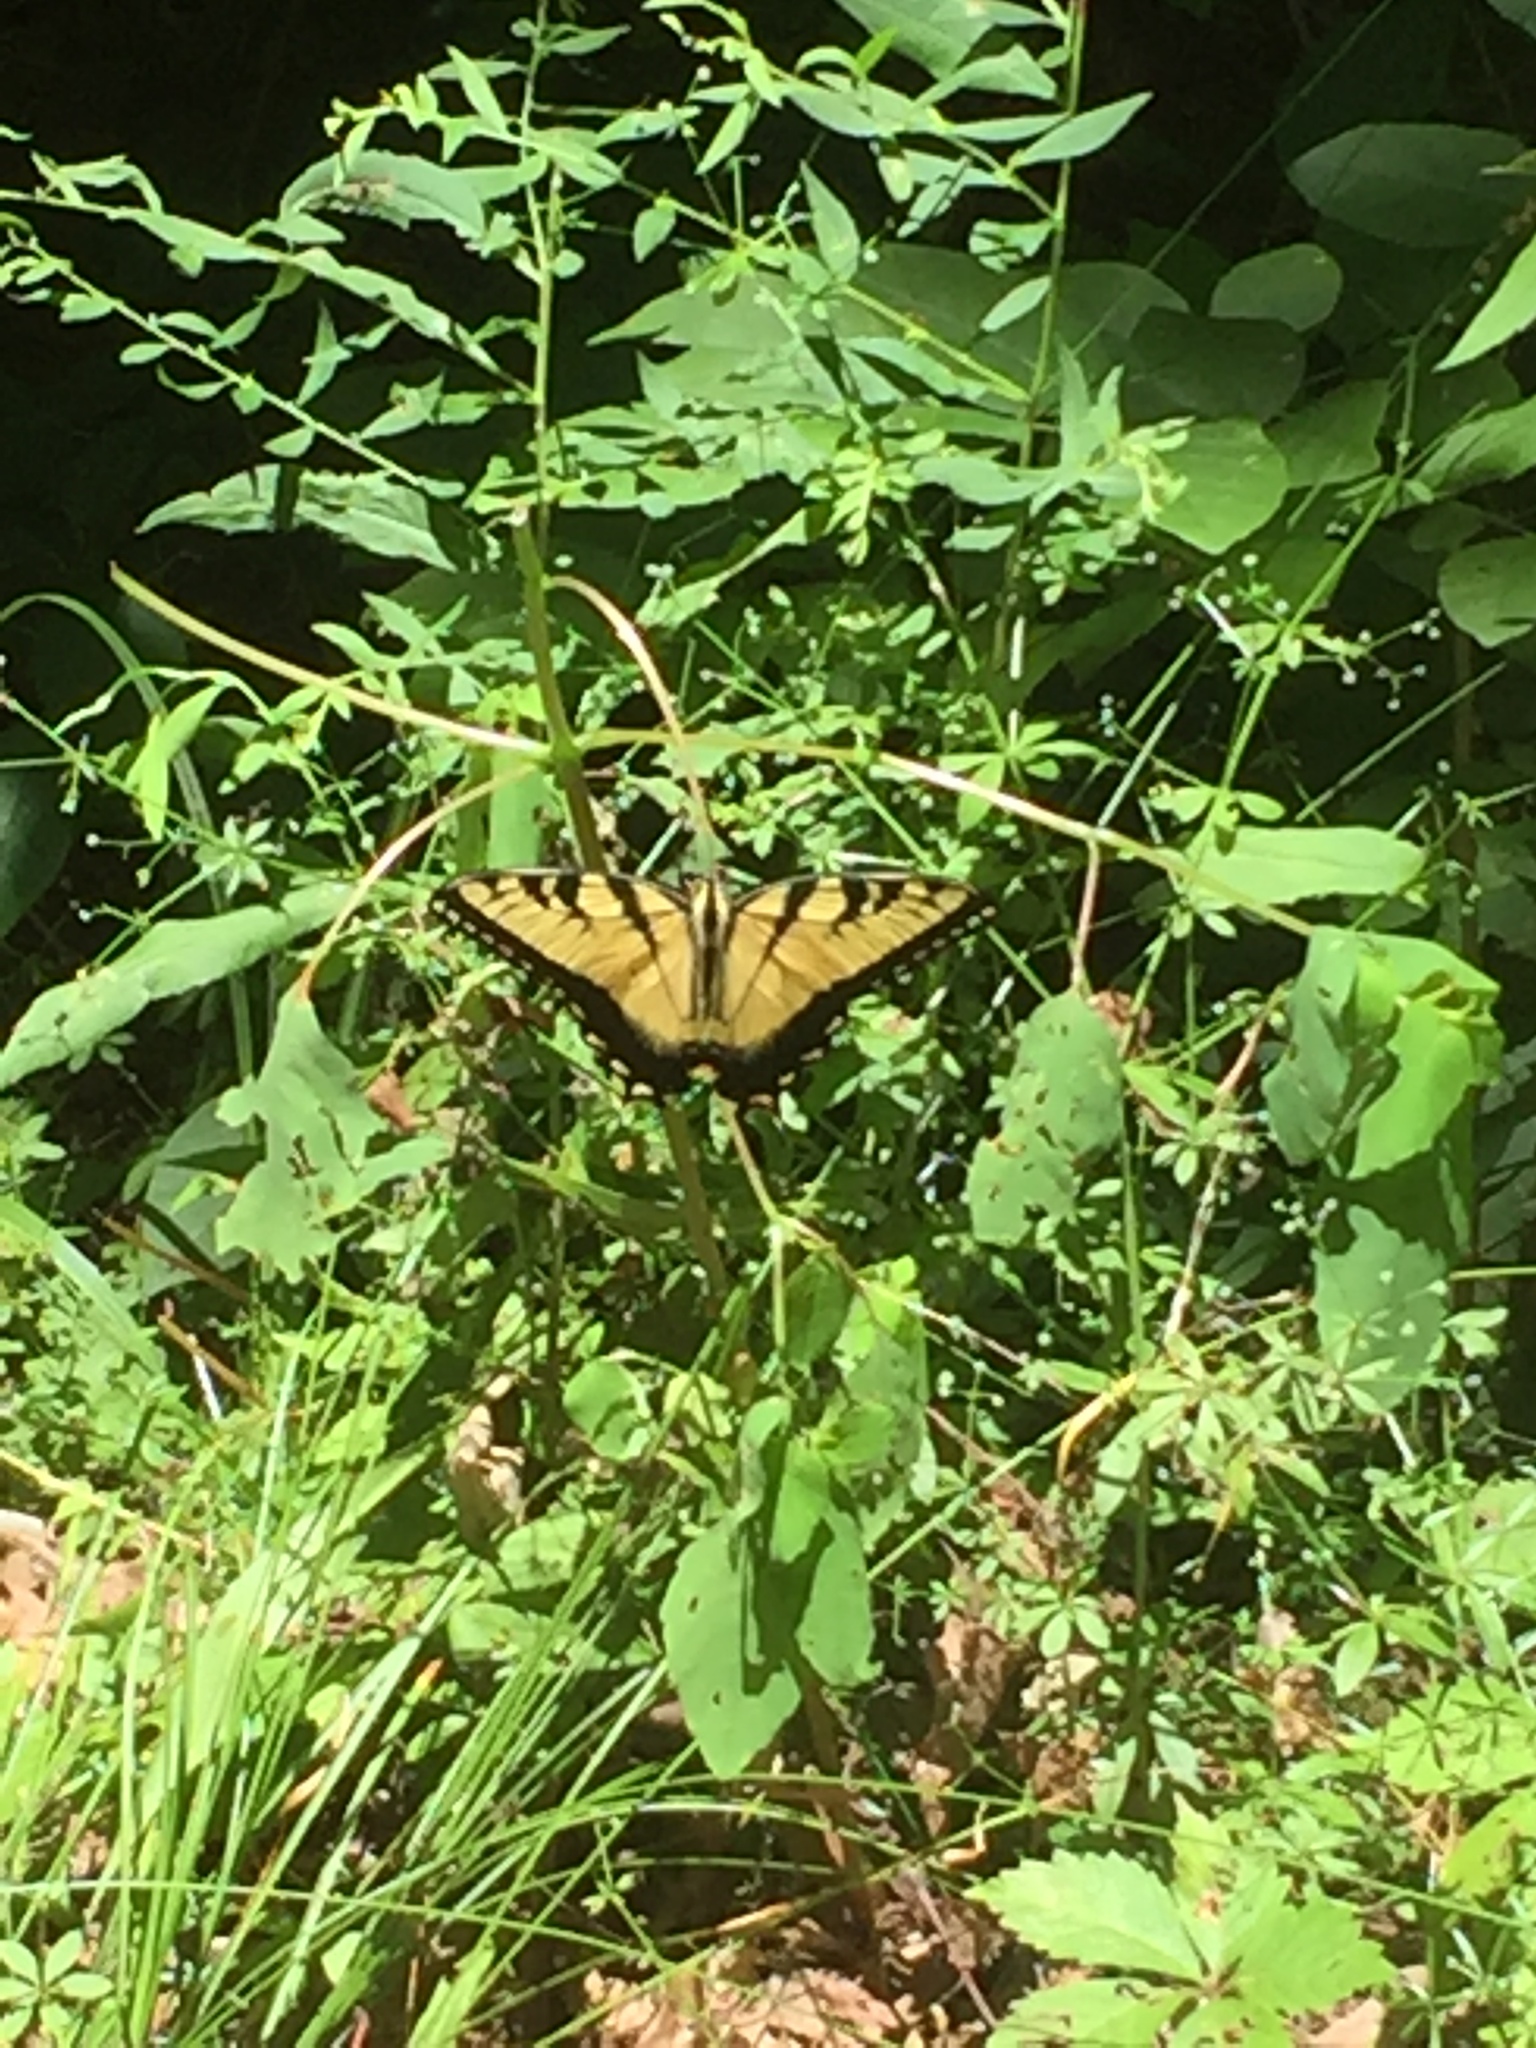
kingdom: Animalia
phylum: Arthropoda
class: Insecta
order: Lepidoptera
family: Papilionidae
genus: Papilio
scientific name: Papilio glaucus
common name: Tiger swallowtail
